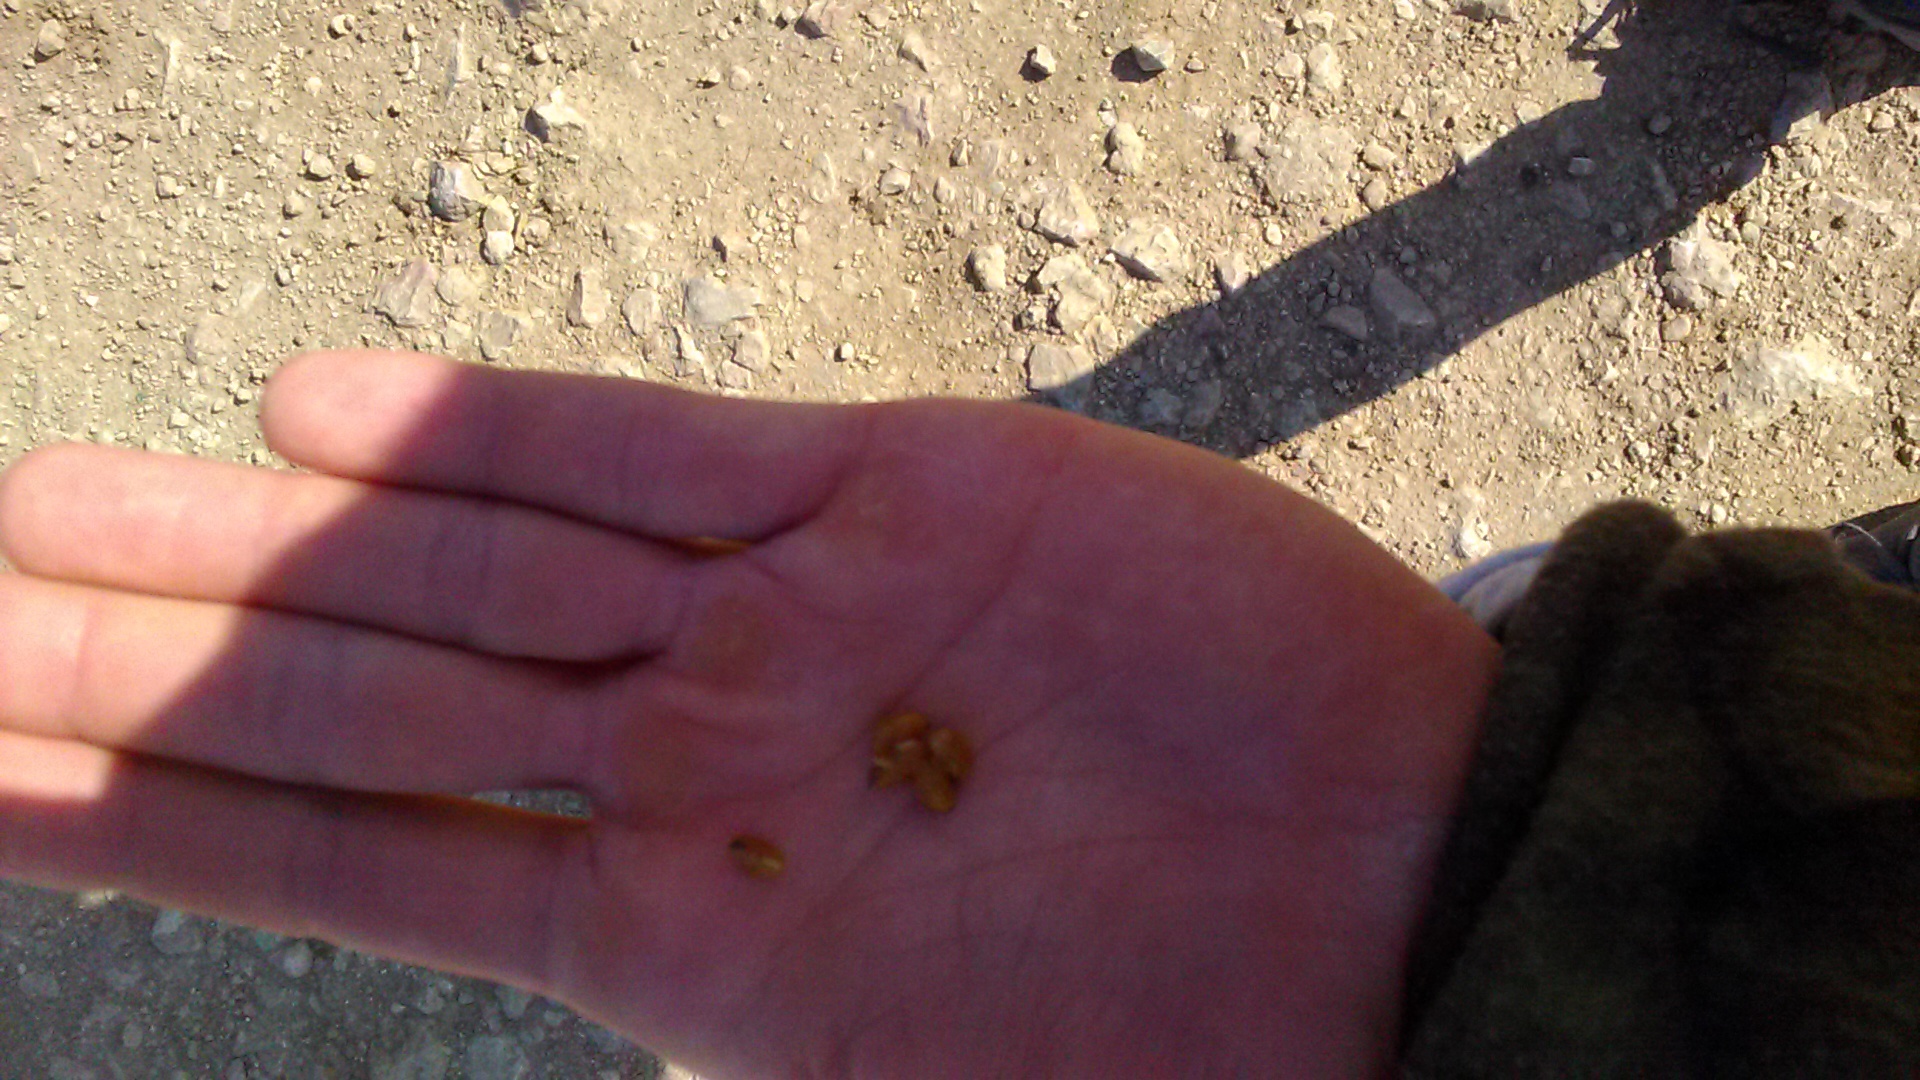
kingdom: Plantae
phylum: Tracheophyta
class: Magnoliopsida
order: Rosales
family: Rosaceae
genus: Crataegus
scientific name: Crataegus orientalis
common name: Oriental hawthorn
